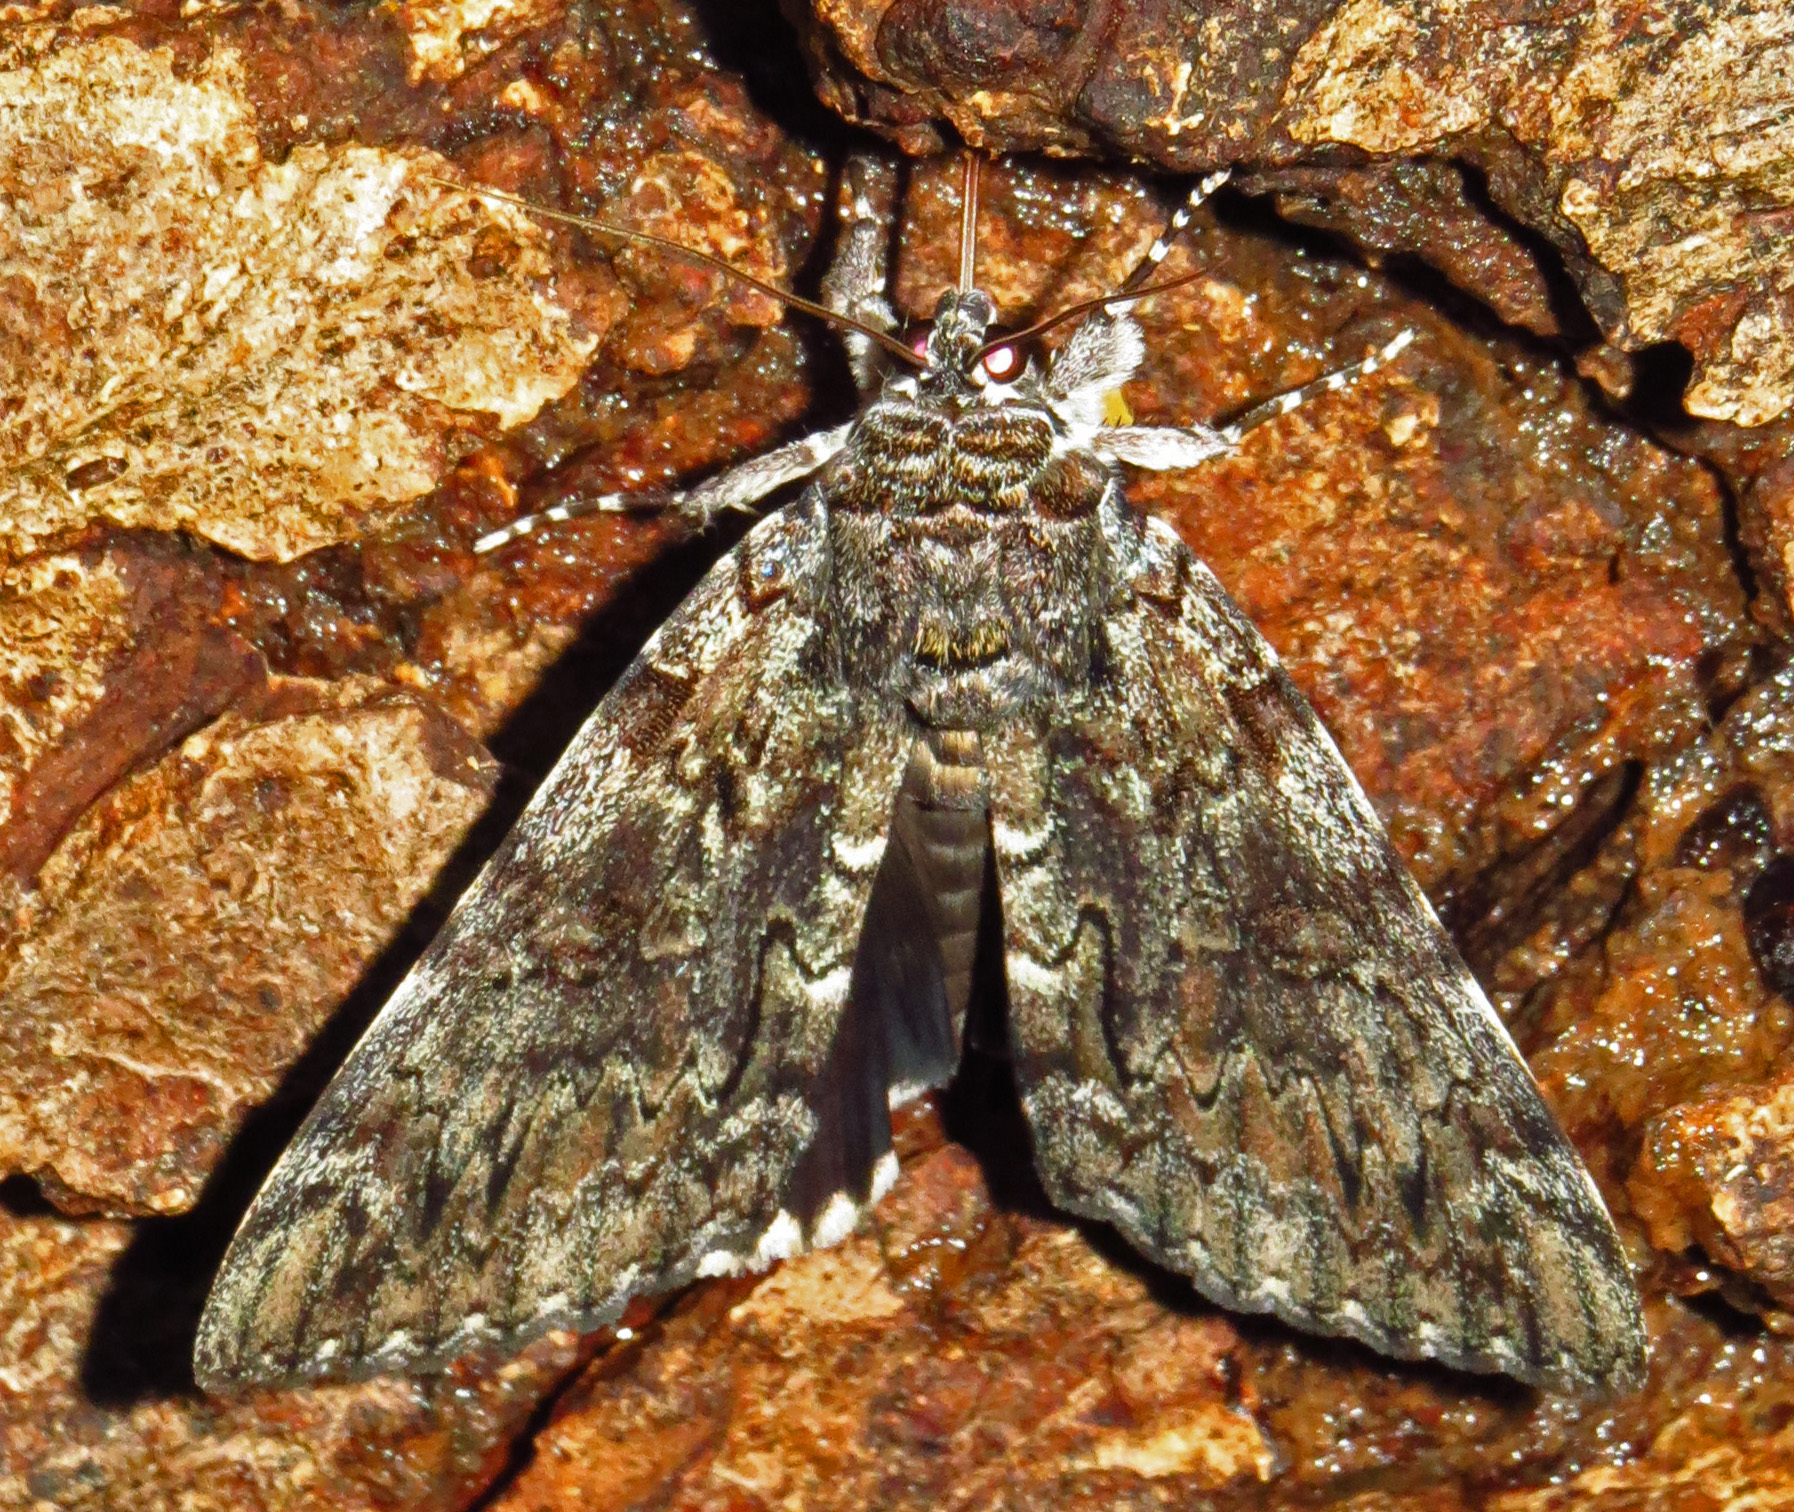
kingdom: Animalia
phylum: Arthropoda
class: Insecta
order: Lepidoptera
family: Erebidae
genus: Catocala
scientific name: Catocala lacrymosa
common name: Tearful underwing
